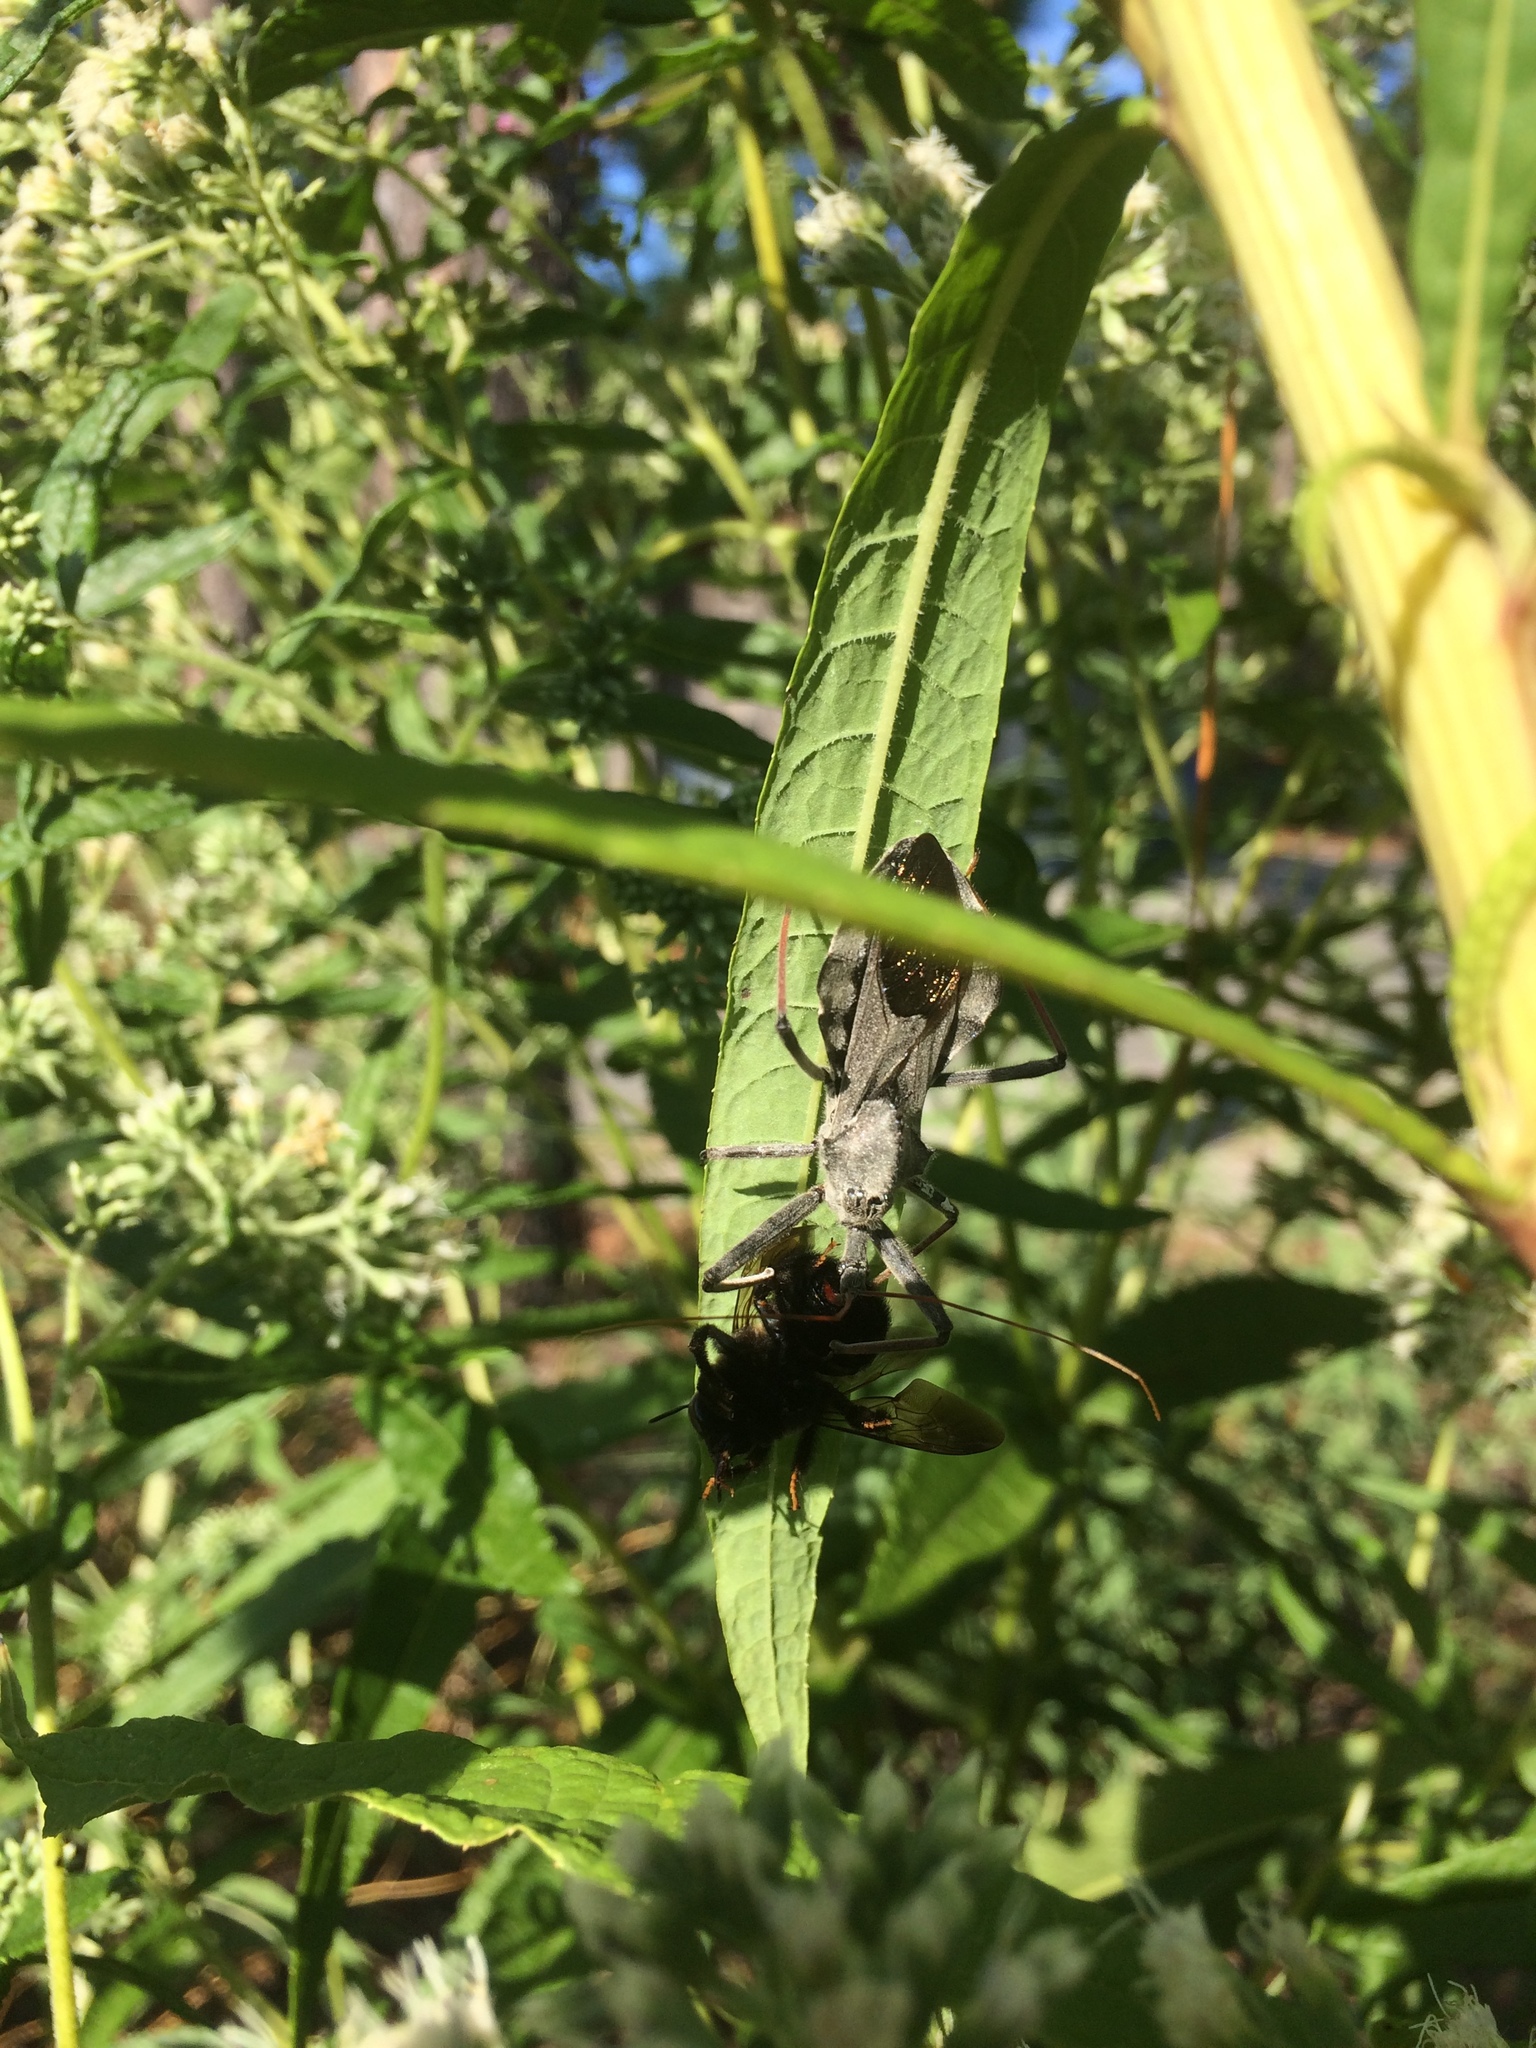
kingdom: Animalia
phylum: Arthropoda
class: Insecta
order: Hemiptera
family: Reduviidae
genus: Arilus
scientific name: Arilus cristatus
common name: North american wheel bug
